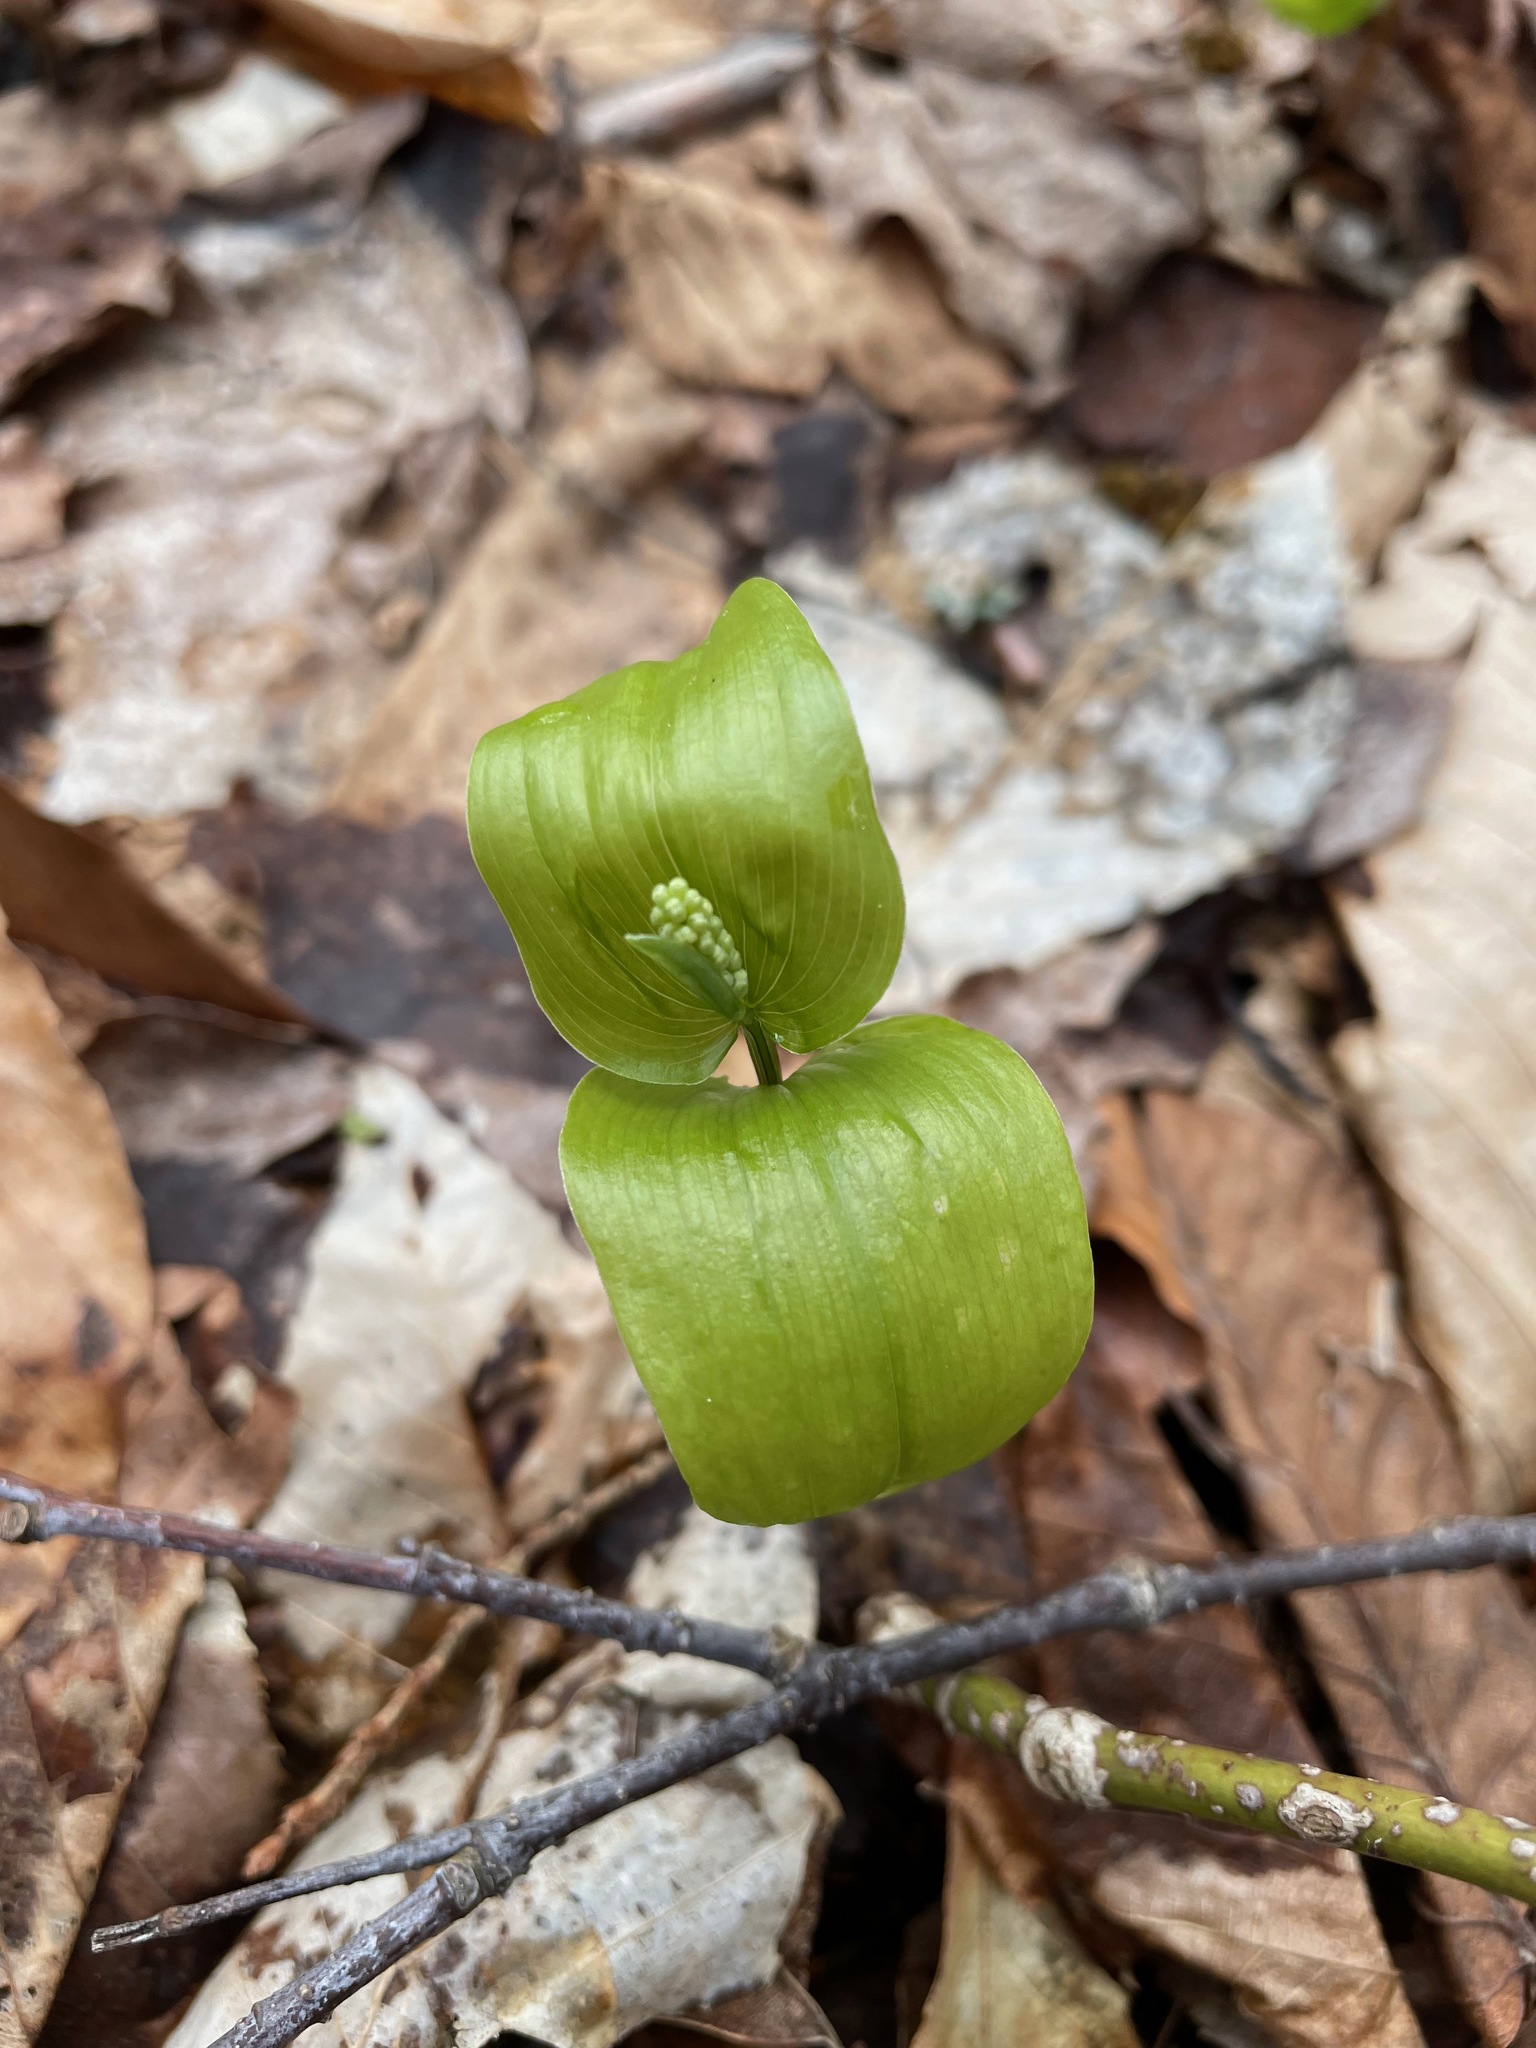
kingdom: Plantae
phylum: Tracheophyta
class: Liliopsida
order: Asparagales
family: Asparagaceae
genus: Maianthemum
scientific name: Maianthemum canadense
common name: False lily-of-the-valley
